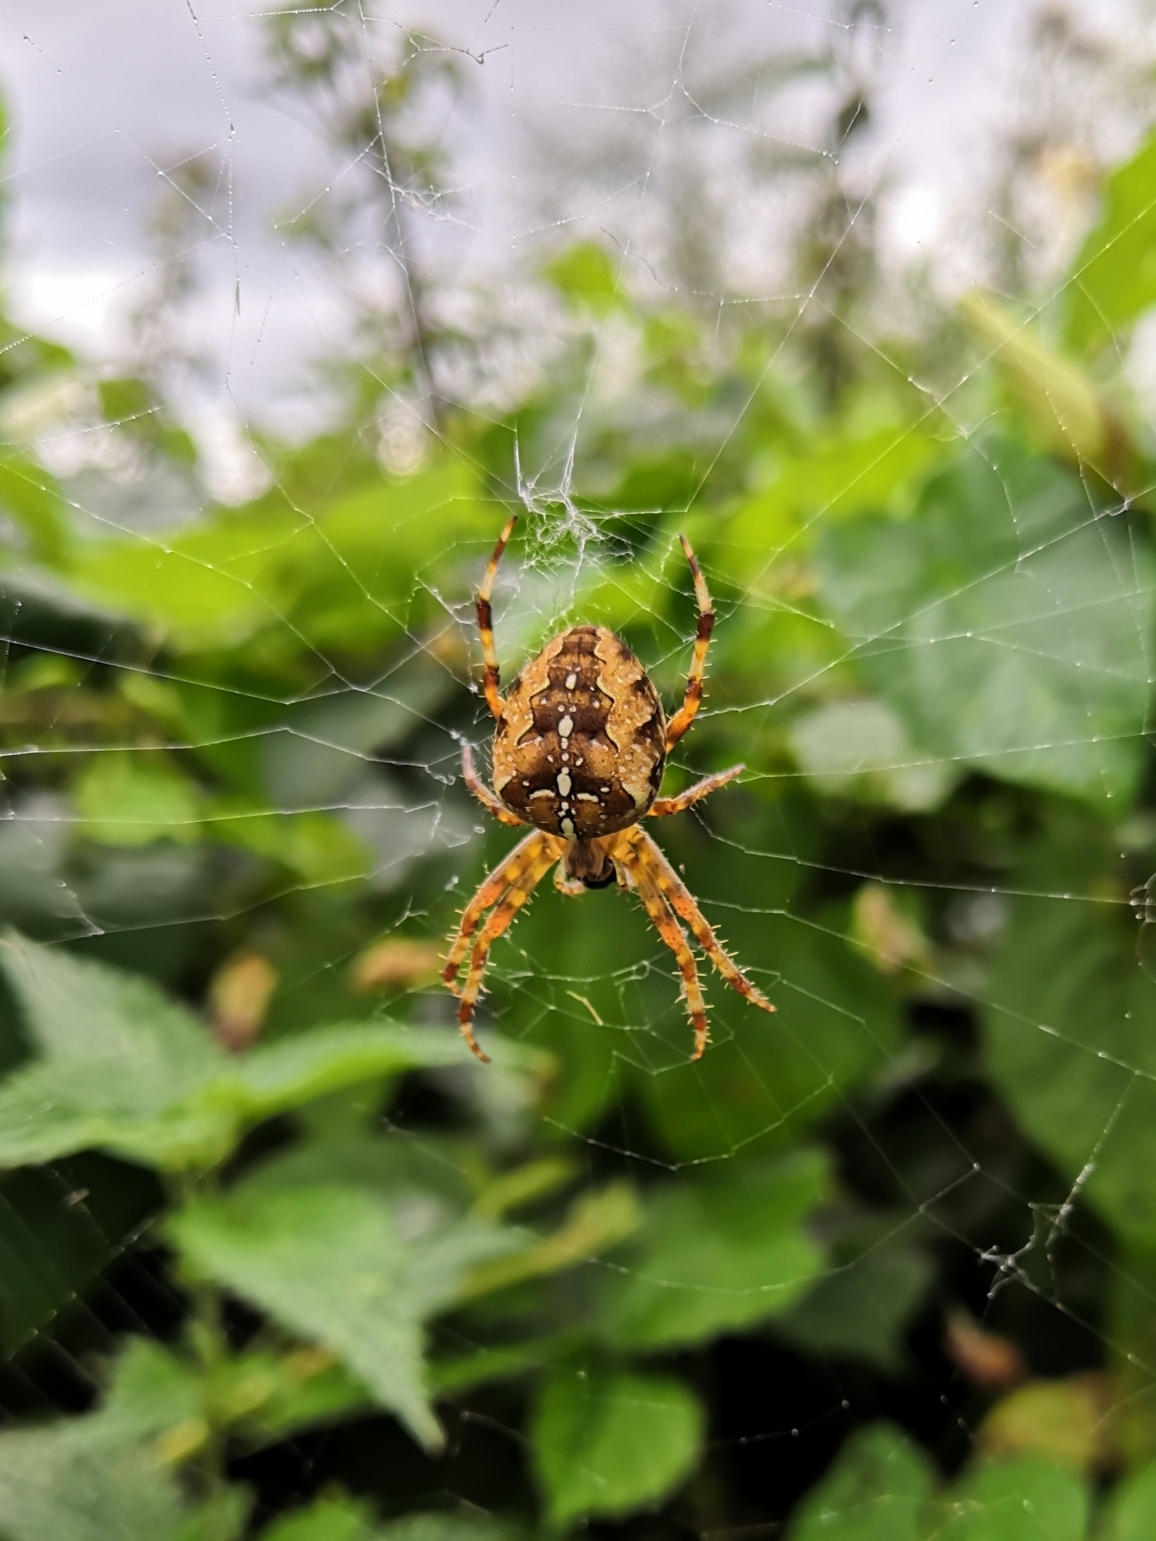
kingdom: Animalia
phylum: Arthropoda
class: Arachnida
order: Araneae
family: Araneidae
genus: Araneus
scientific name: Araneus diadematus
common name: Cross orbweaver
